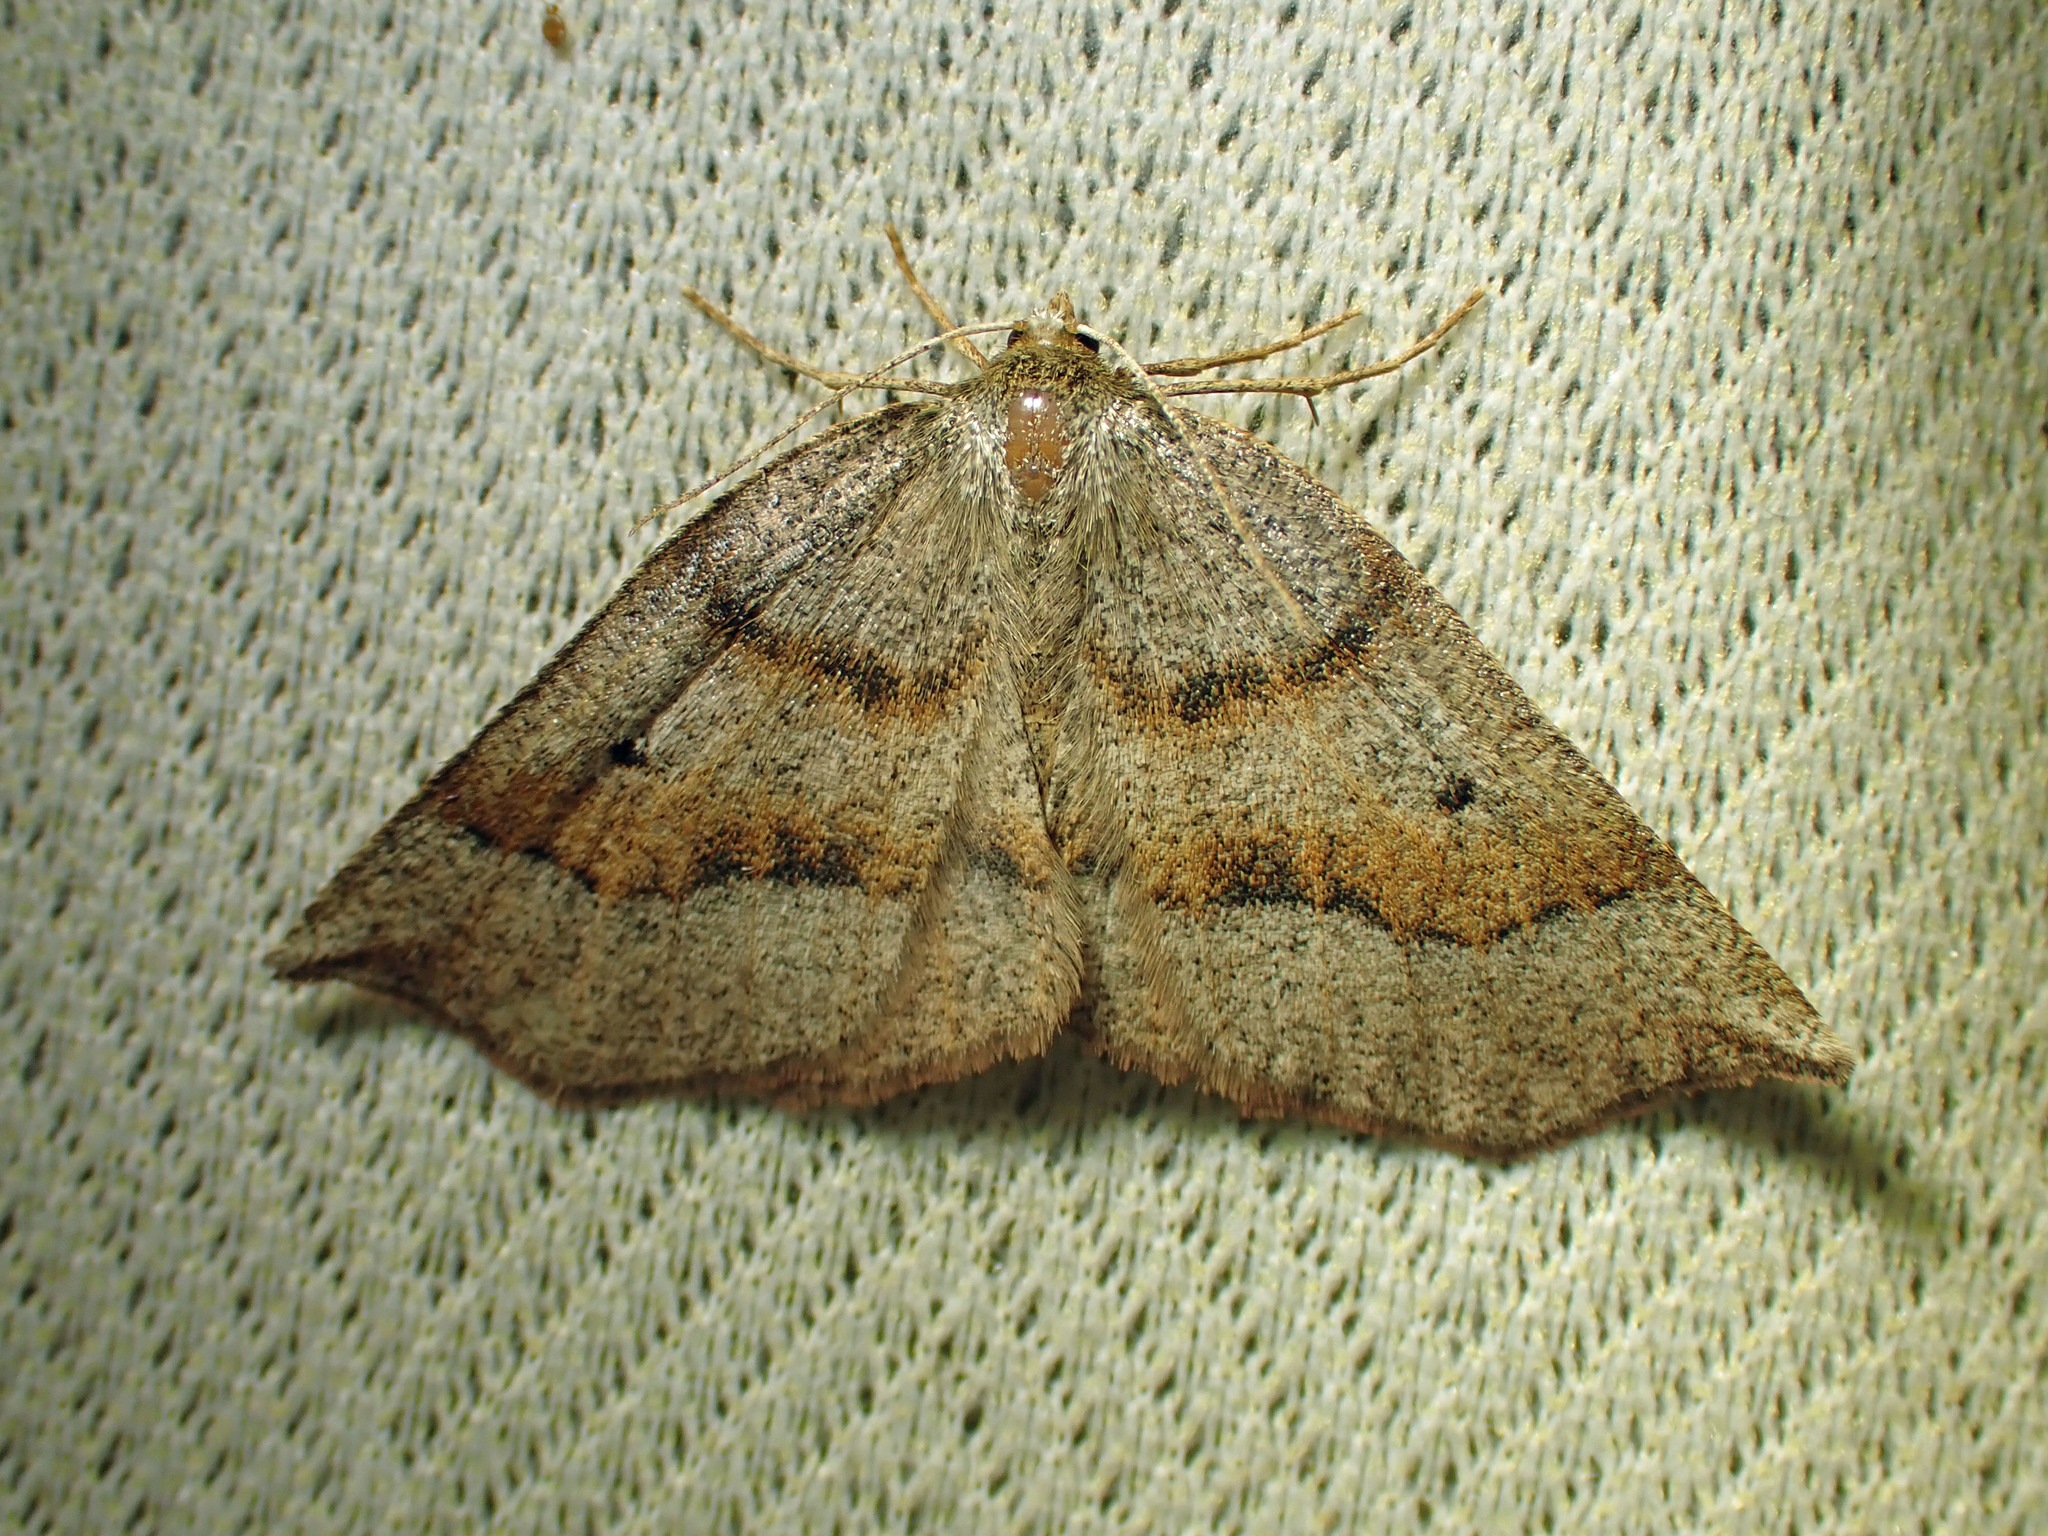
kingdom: Animalia
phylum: Arthropoda
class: Insecta
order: Lepidoptera
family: Geometridae
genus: Metarranthis
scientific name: Metarranthis duaria
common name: Ruddy metarranthis moth
